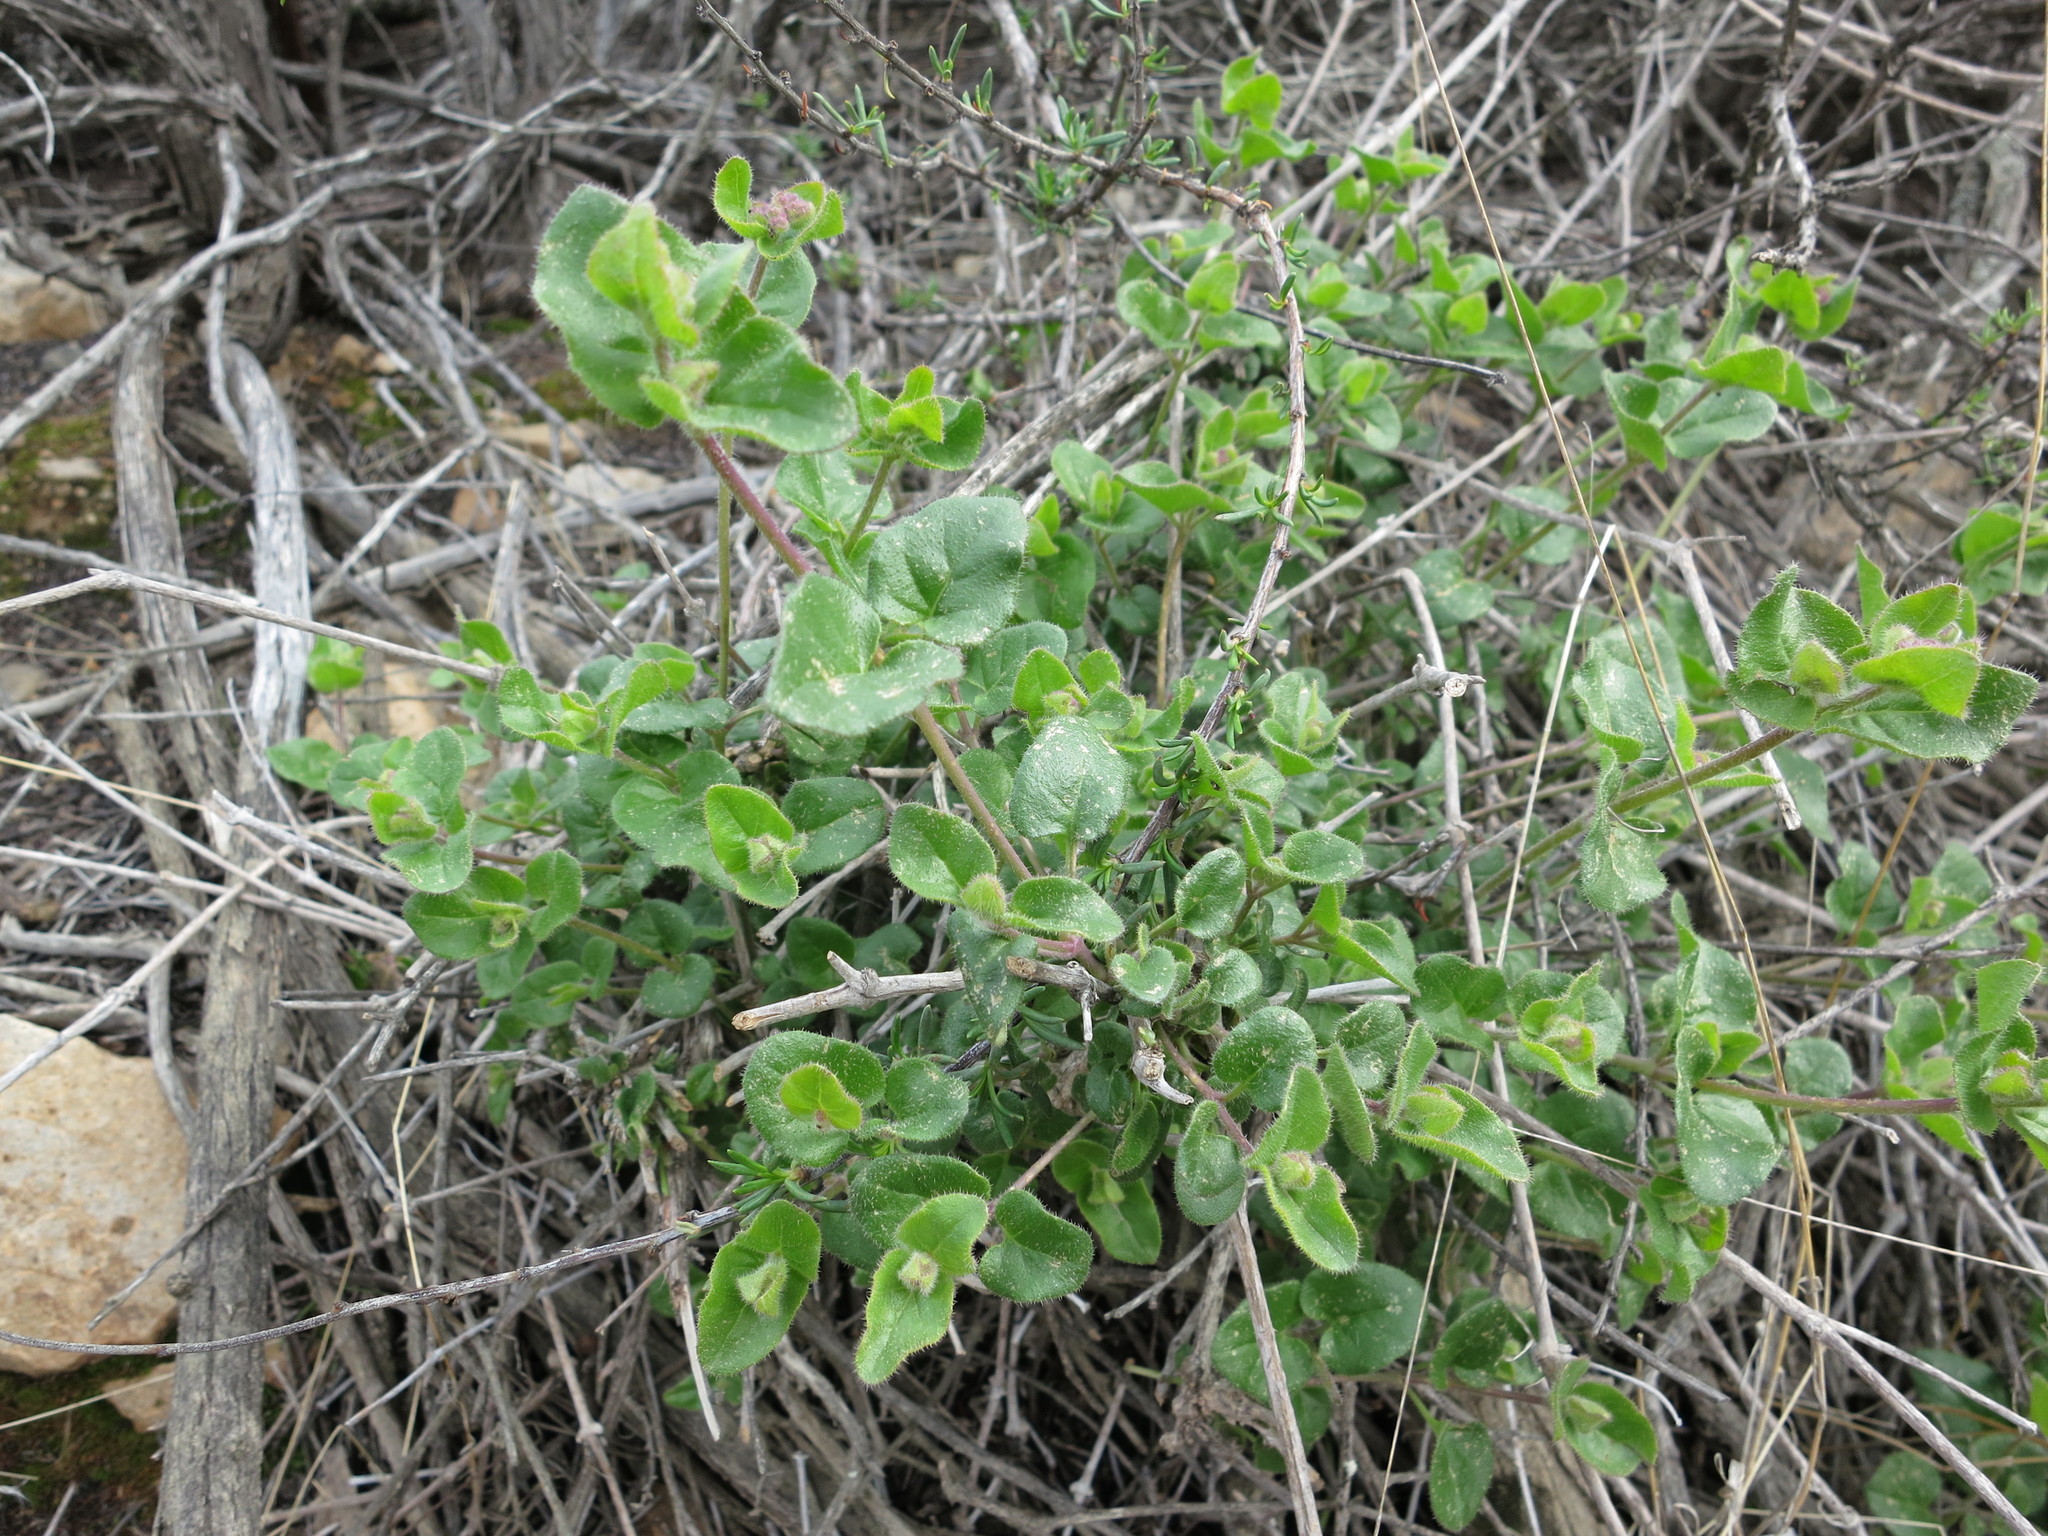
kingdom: Plantae
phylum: Tracheophyta
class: Magnoliopsida
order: Caryophyllales
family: Nyctaginaceae
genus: Mirabilis
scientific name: Mirabilis laevis
